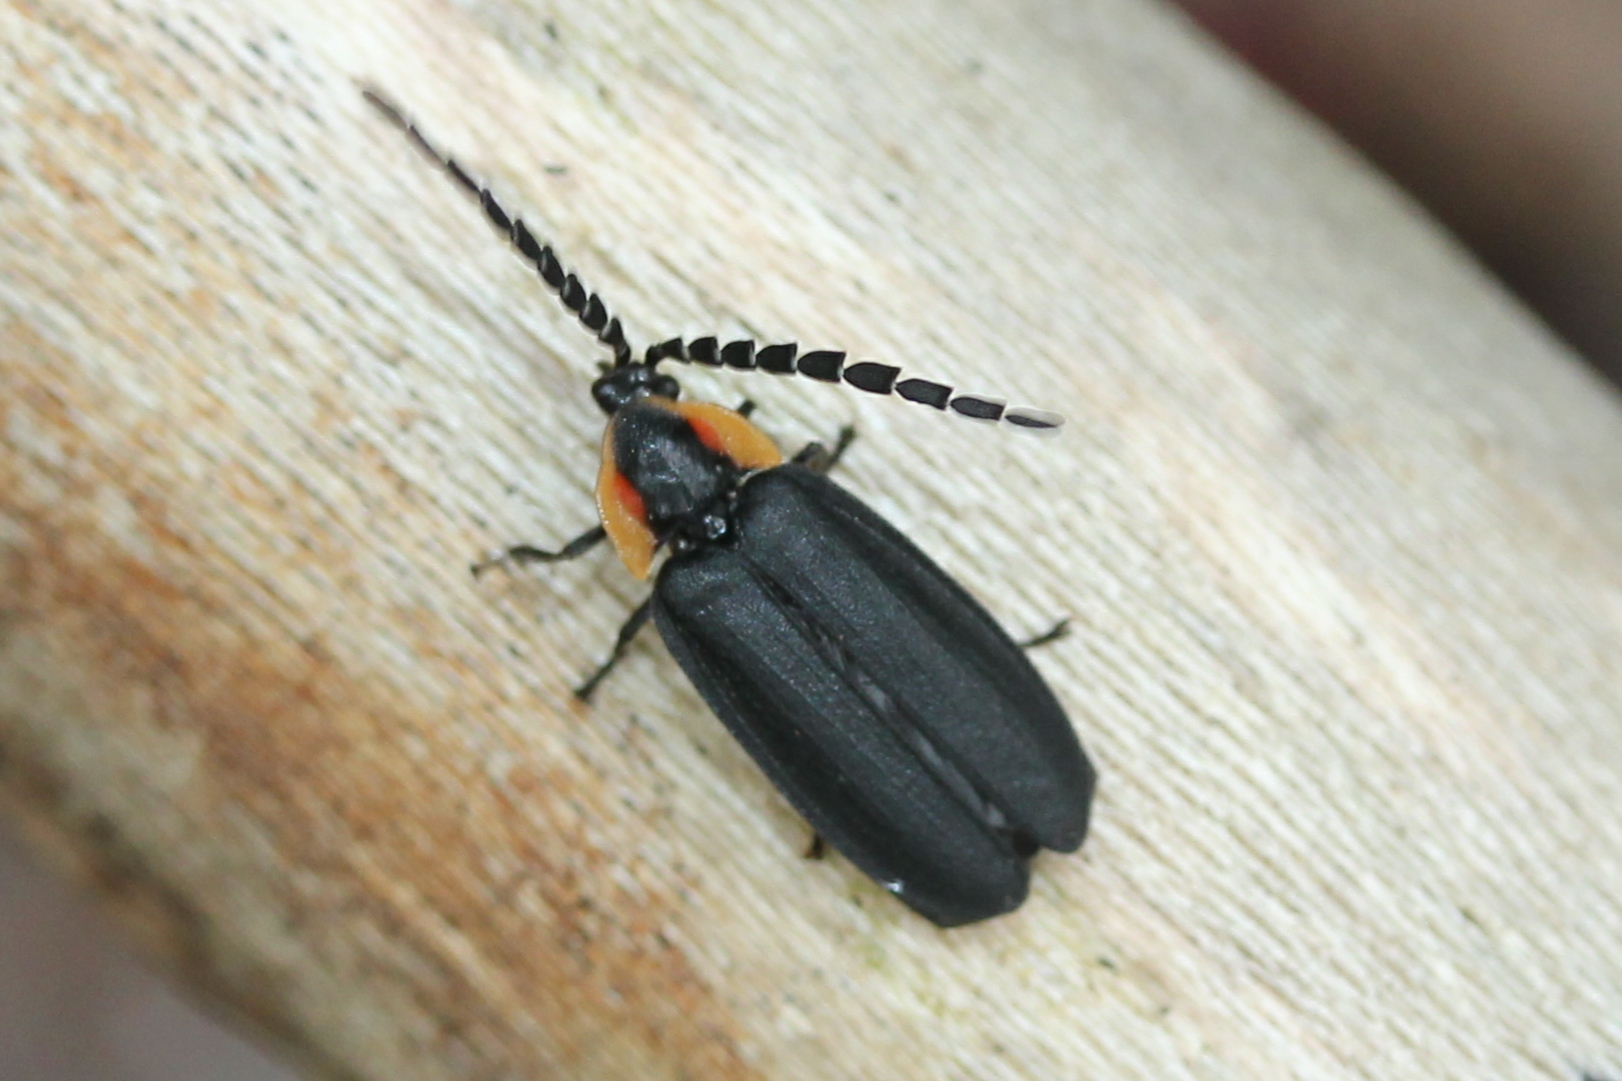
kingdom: Animalia
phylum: Arthropoda
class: Insecta
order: Coleoptera
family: Lampyridae
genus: Lucidota
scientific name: Lucidota atra
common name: Black firefly
